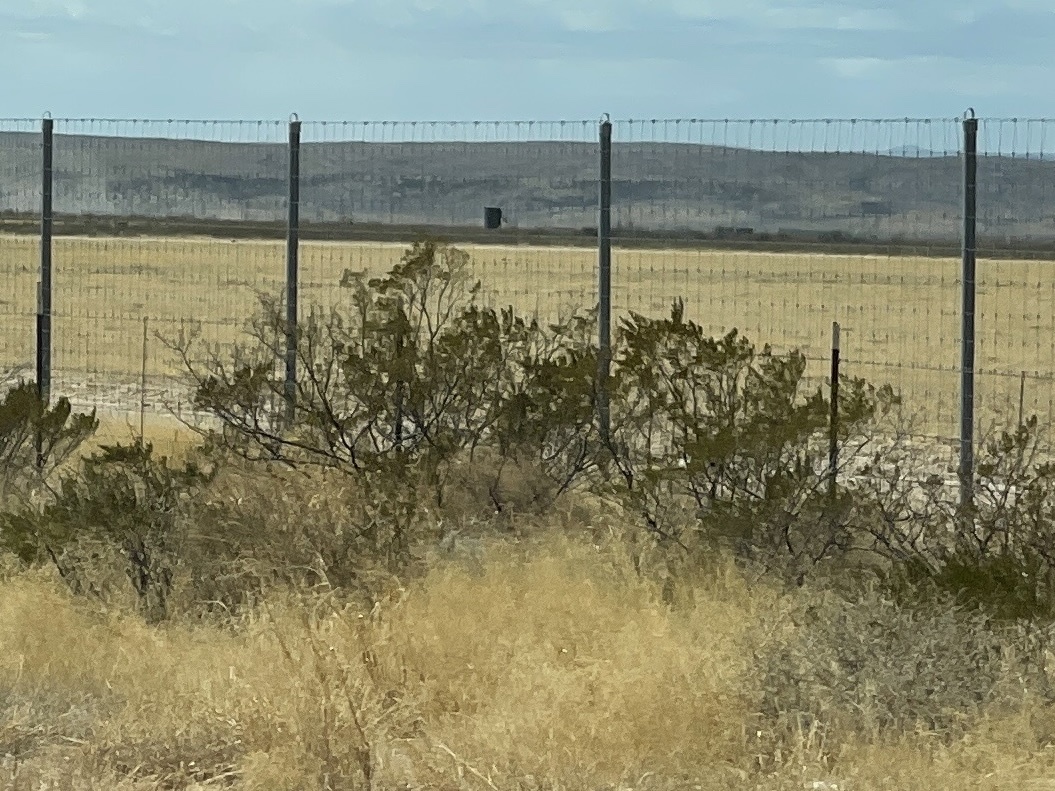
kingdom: Plantae
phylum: Tracheophyta
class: Magnoliopsida
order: Zygophyllales
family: Zygophyllaceae
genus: Larrea
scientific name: Larrea tridentata
